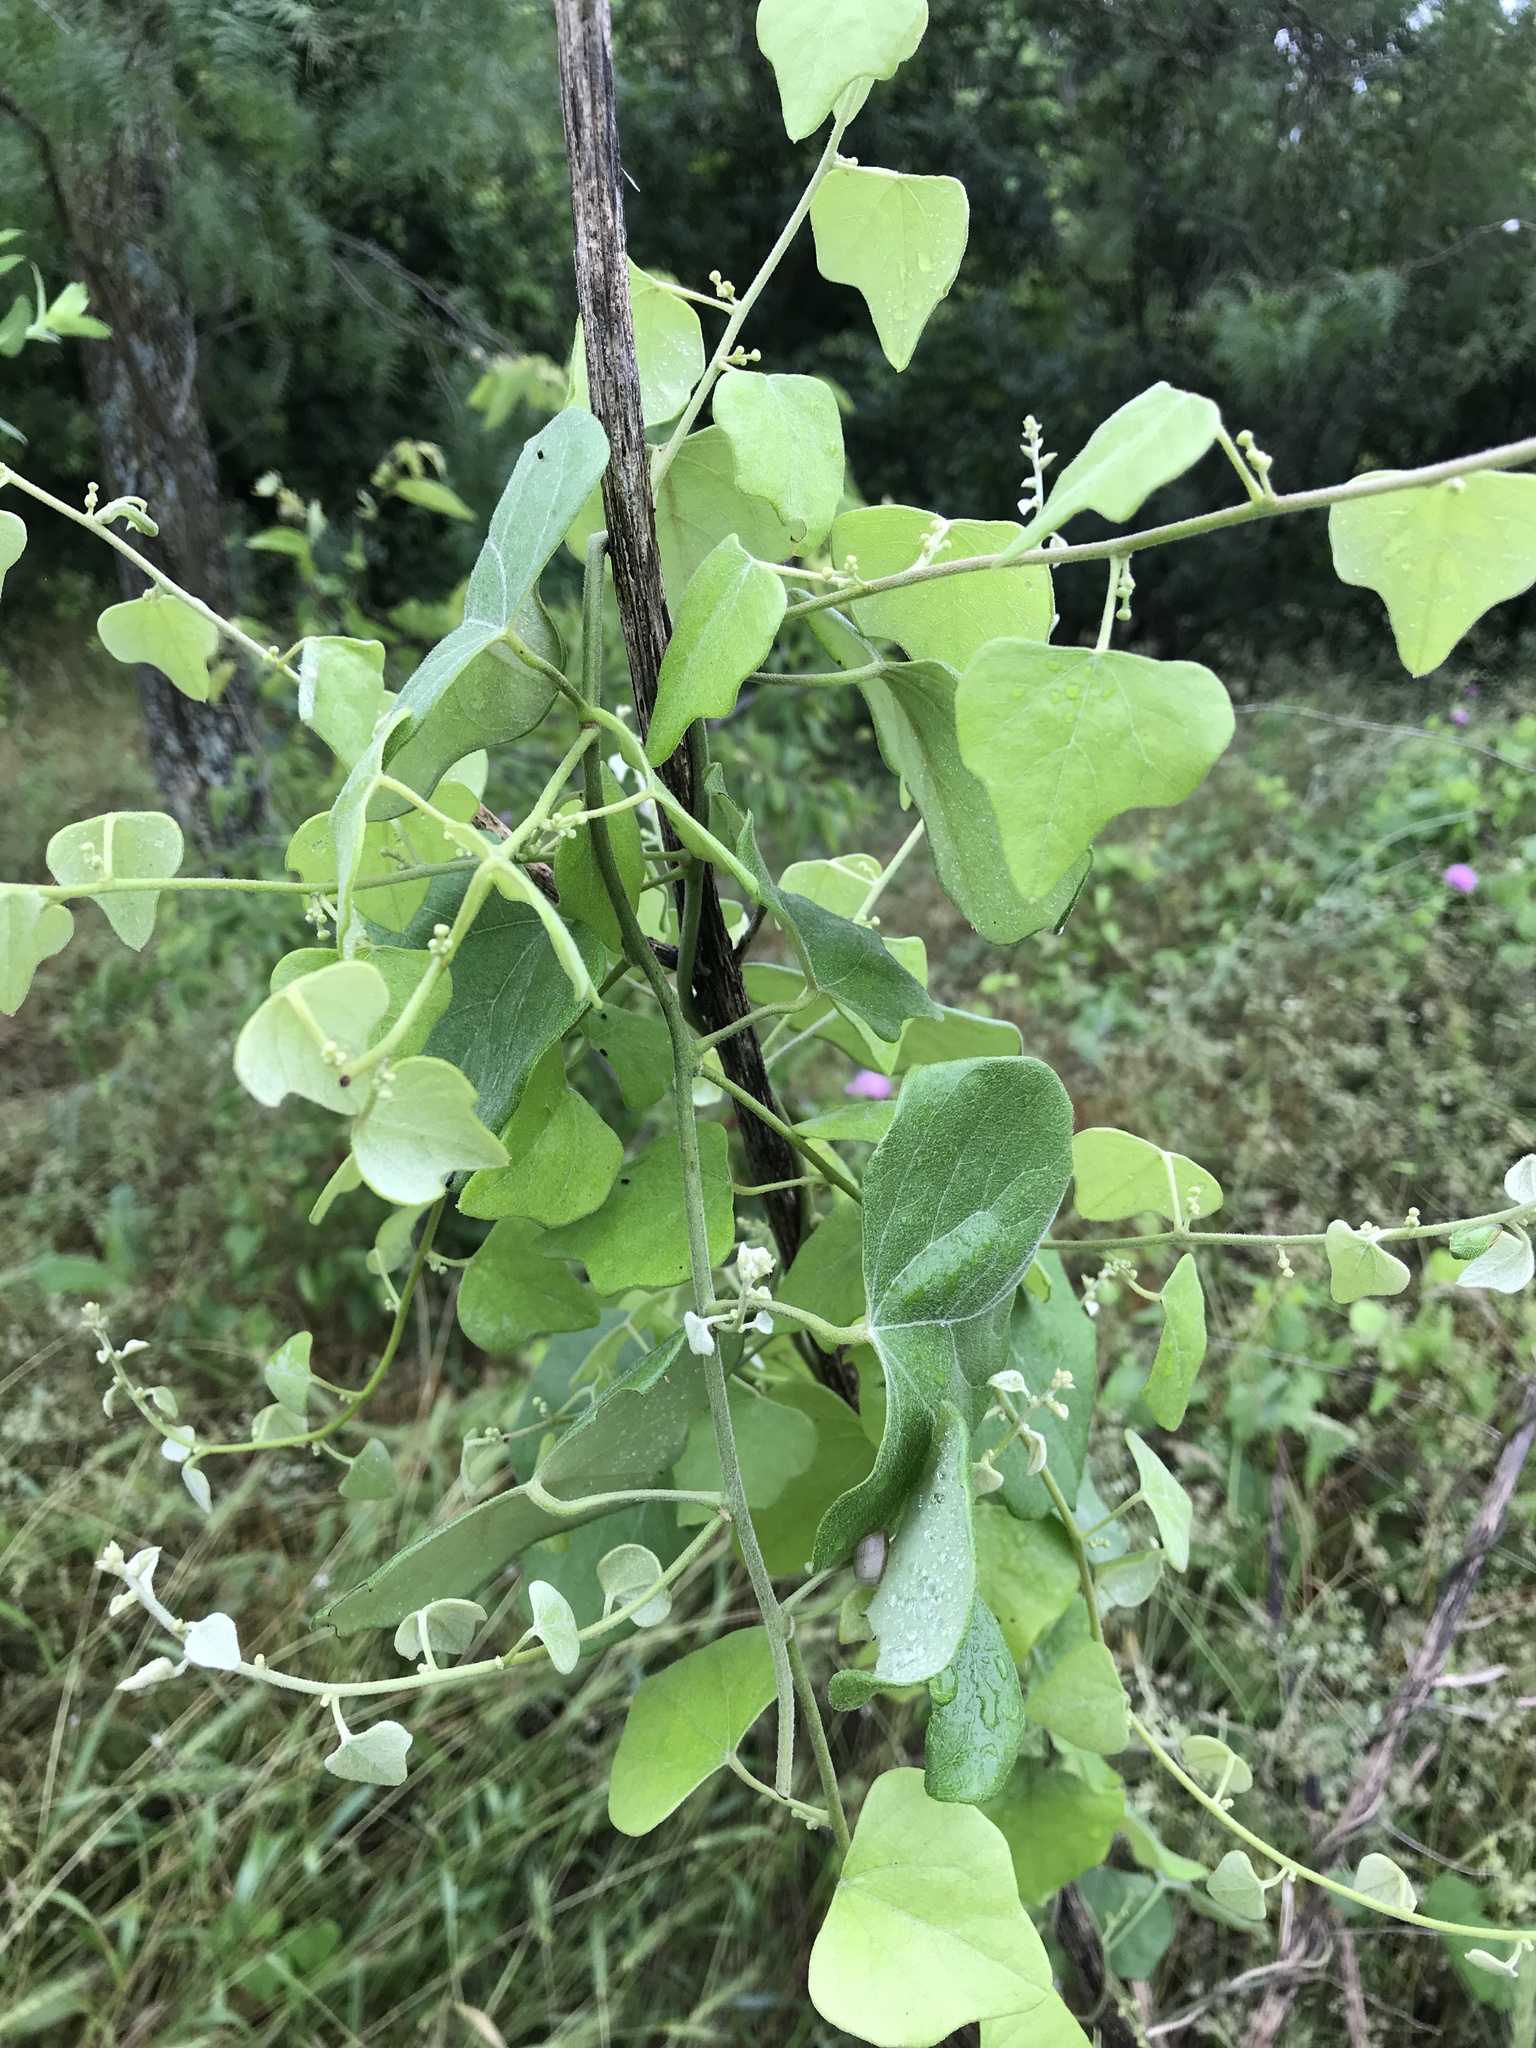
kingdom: Plantae
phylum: Tracheophyta
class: Magnoliopsida
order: Ranunculales
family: Menispermaceae
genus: Cocculus
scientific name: Cocculus carolinus
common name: Carolina moonseed
